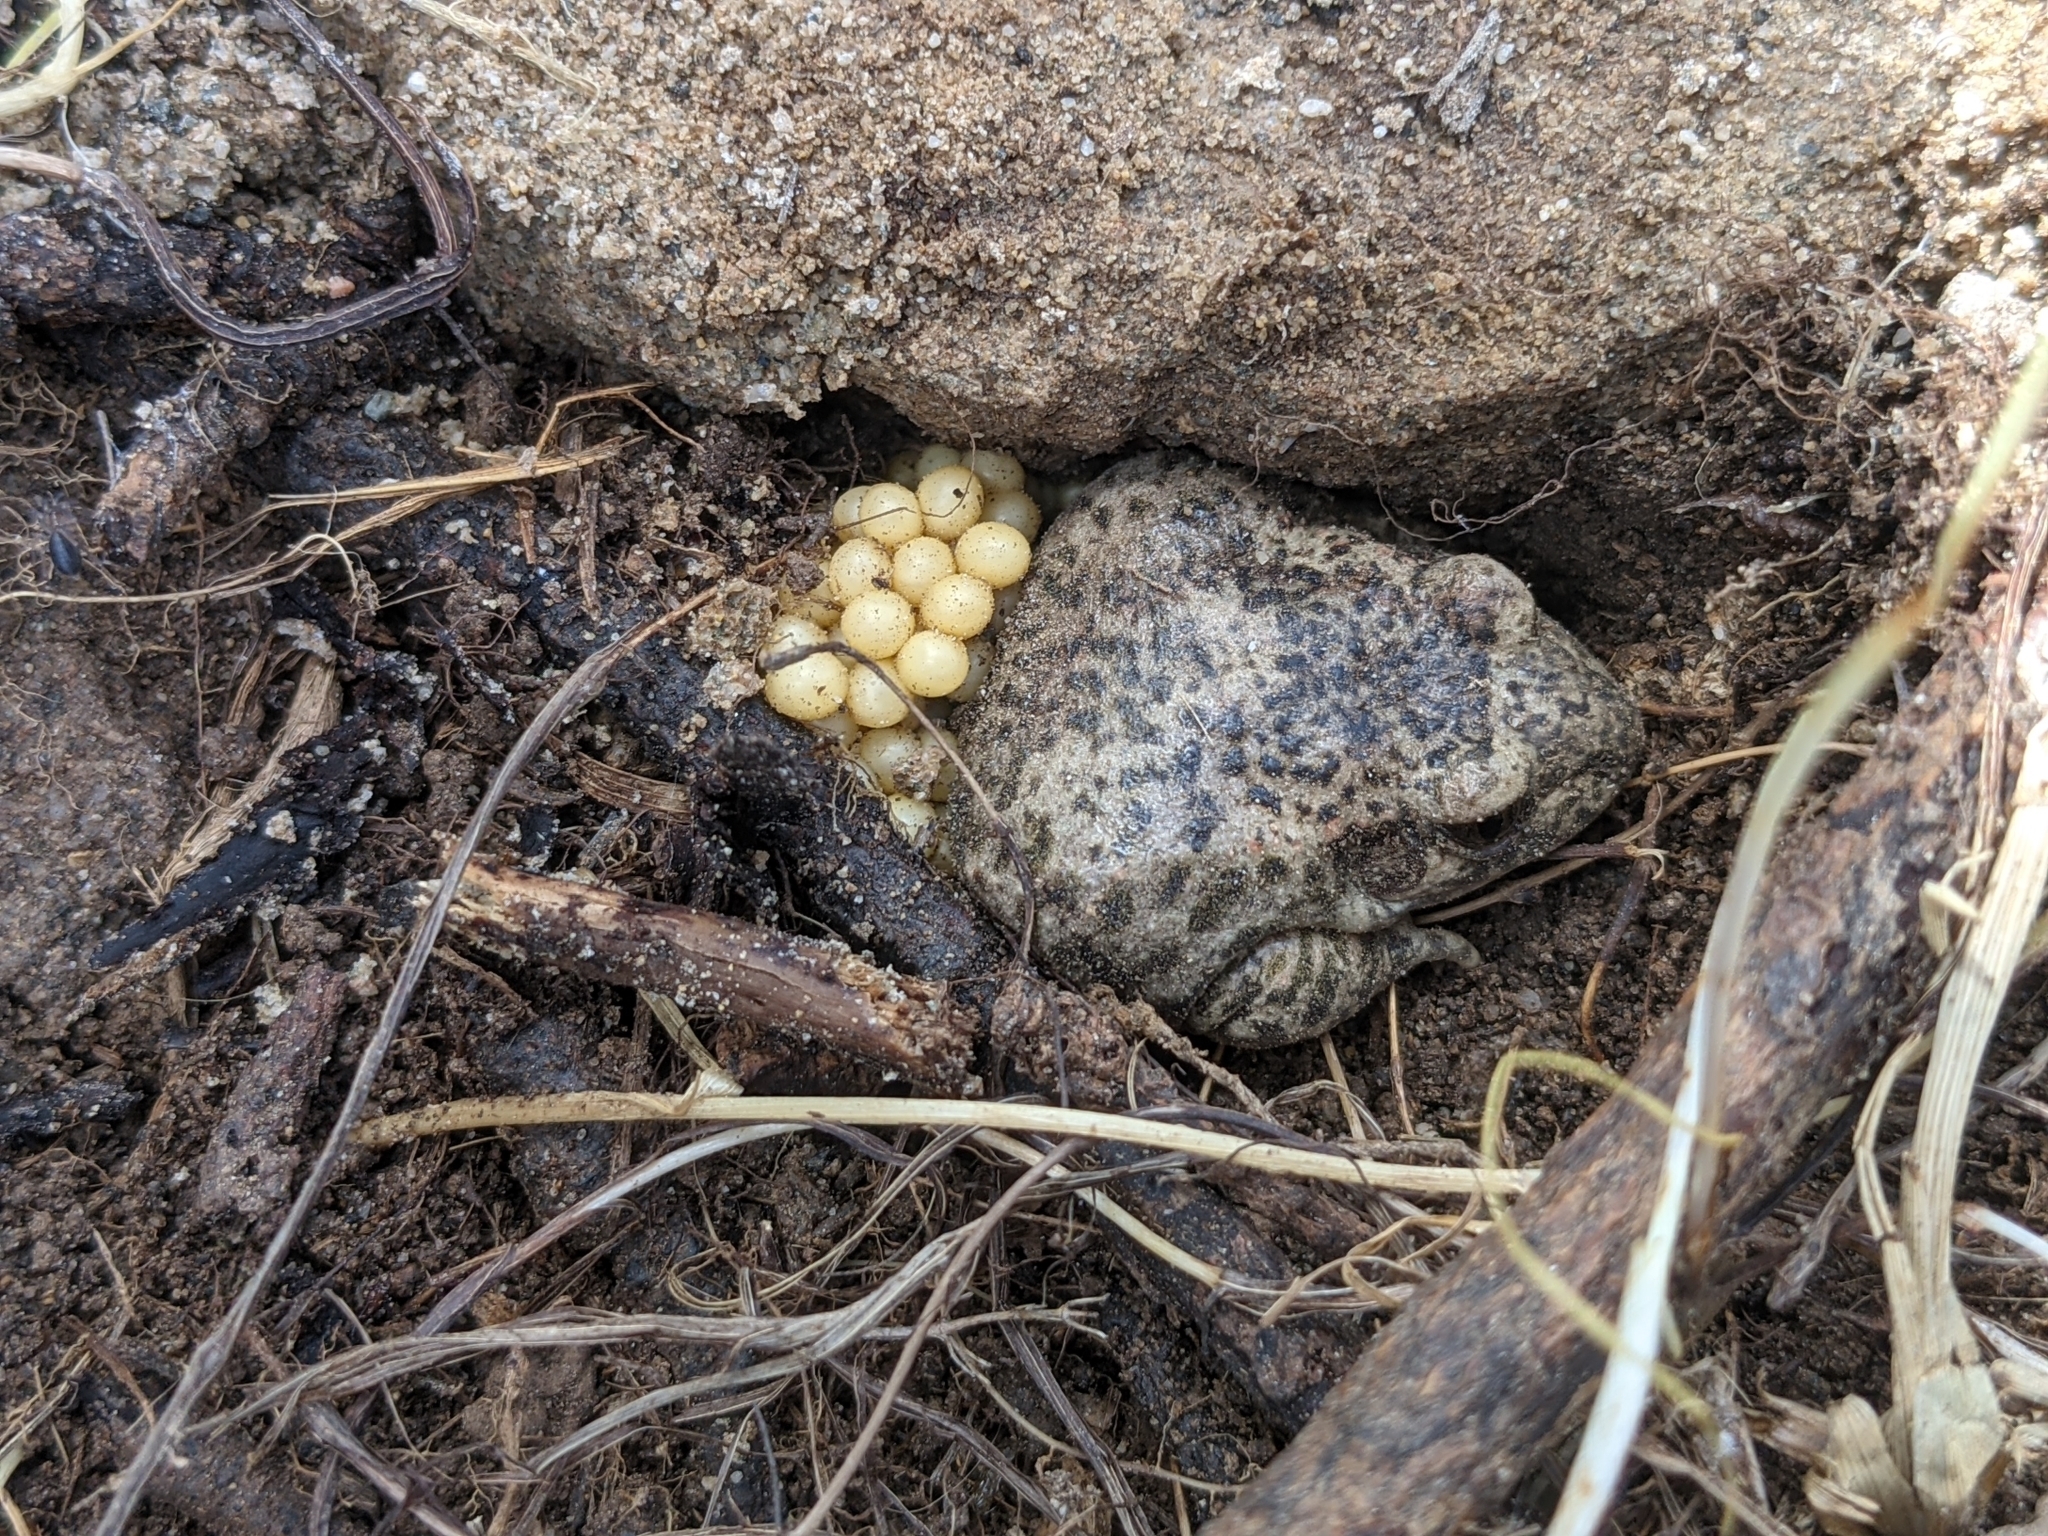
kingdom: Animalia
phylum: Chordata
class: Amphibia
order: Anura
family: Alytidae
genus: Alytes
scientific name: Alytes obstetricans
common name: Midwife toad
